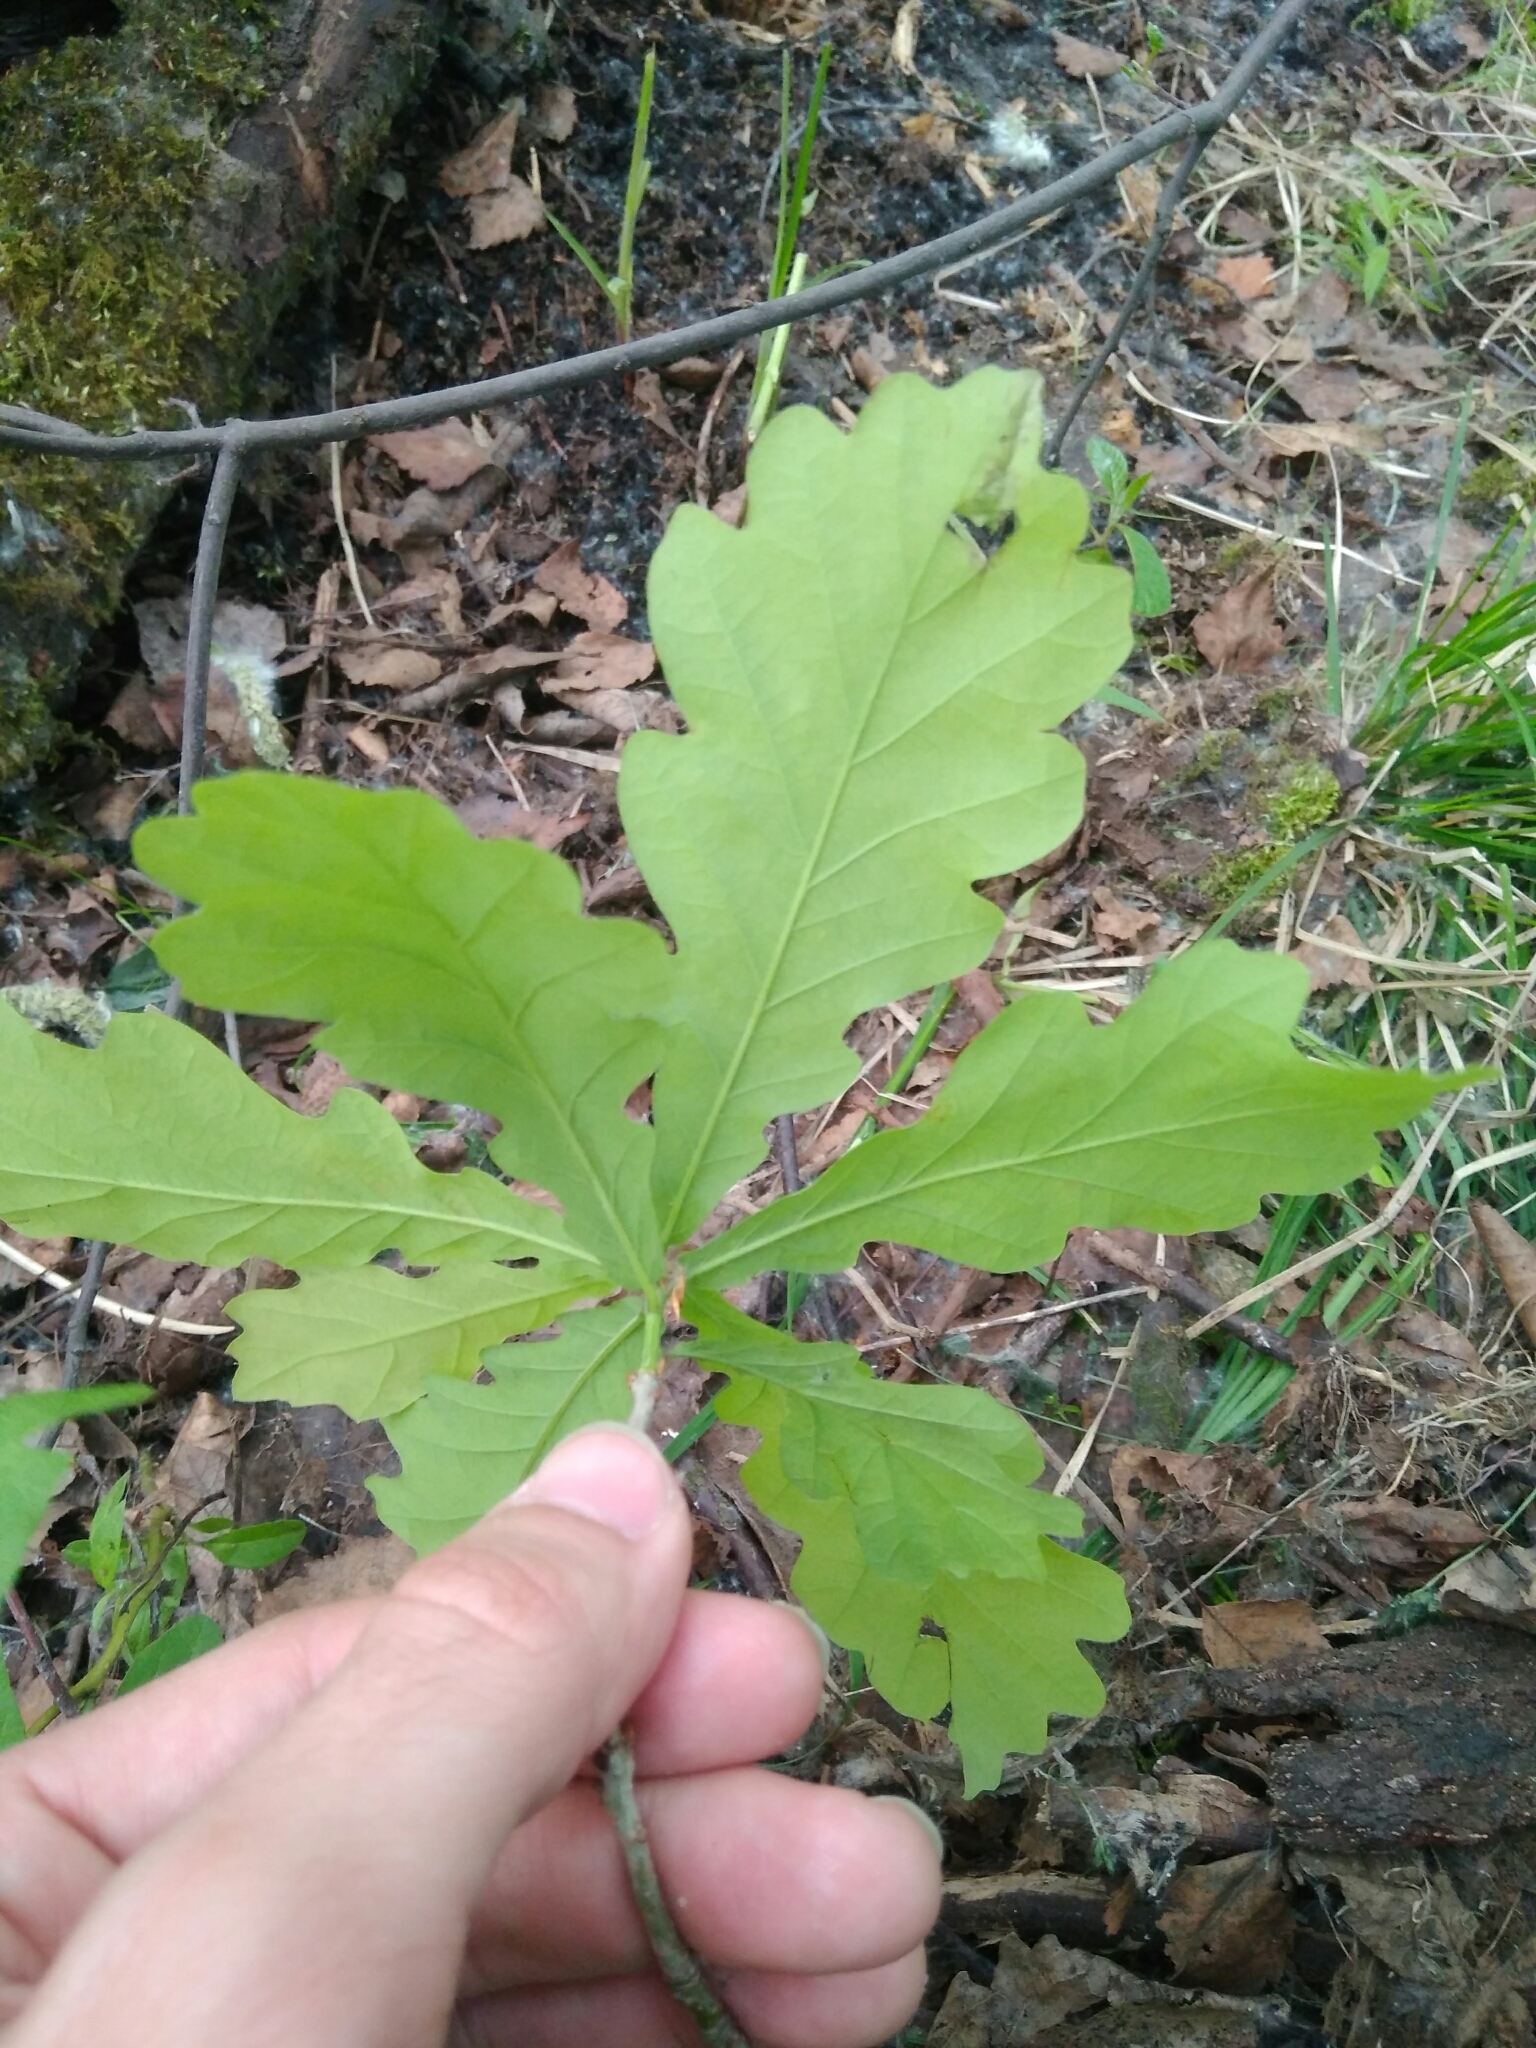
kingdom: Plantae
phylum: Tracheophyta
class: Magnoliopsida
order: Fagales
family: Fagaceae
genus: Quercus
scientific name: Quercus robur
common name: Pedunculate oak
